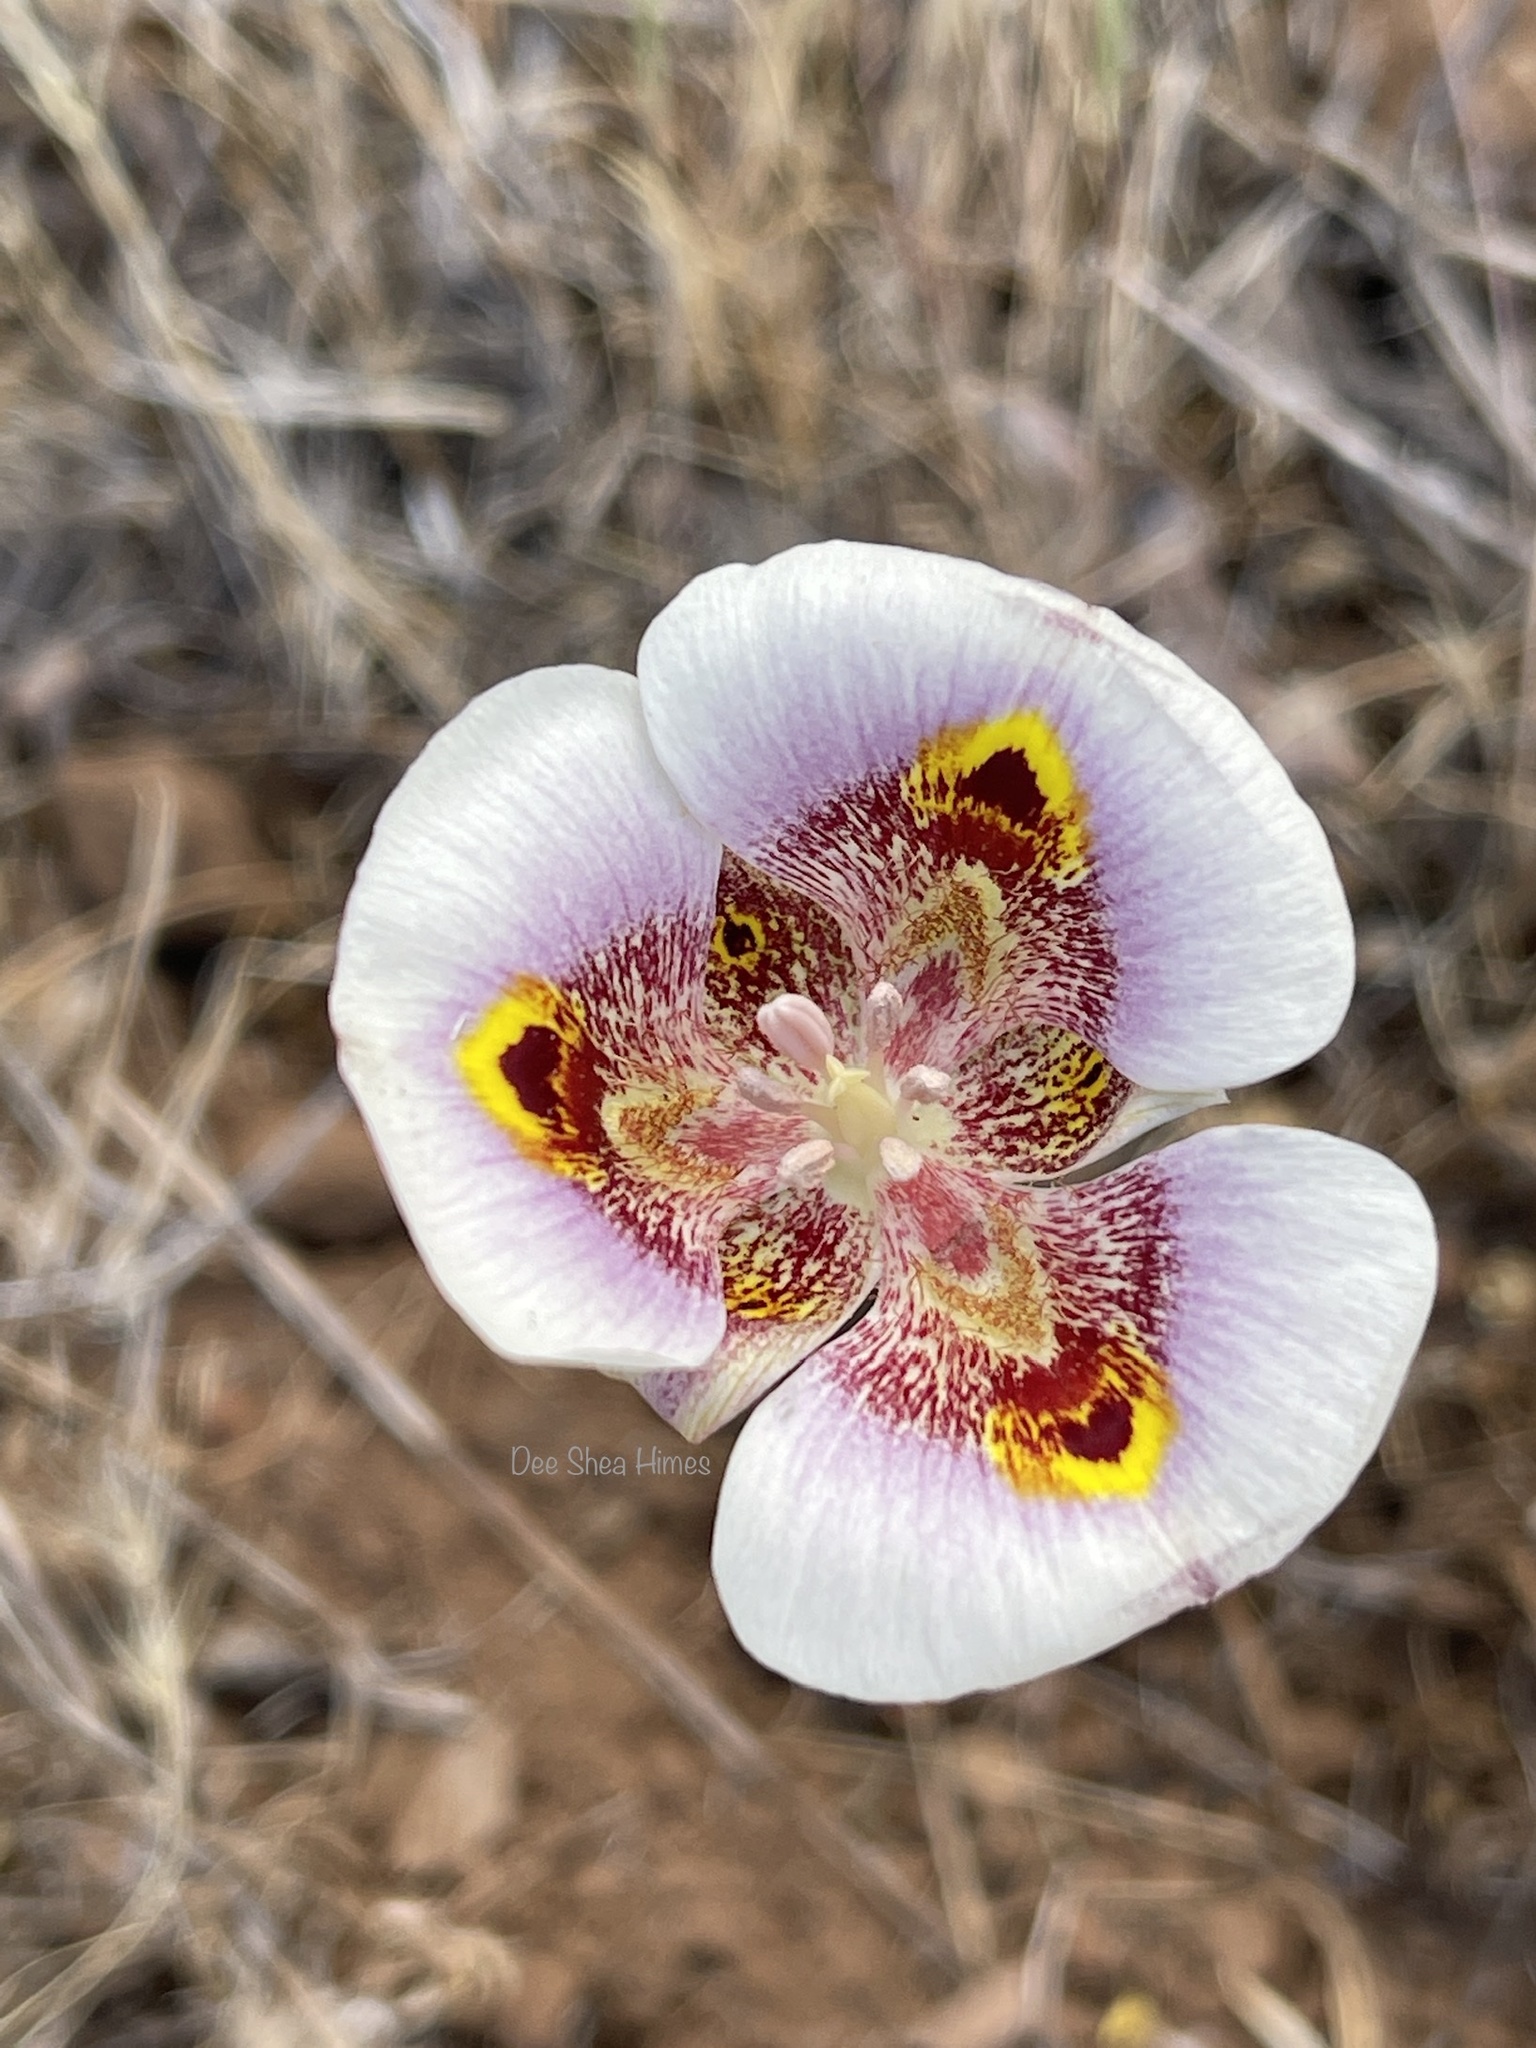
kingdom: Plantae
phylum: Tracheophyta
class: Liliopsida
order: Liliales
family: Liliaceae
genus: Calochortus
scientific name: Calochortus superbus
